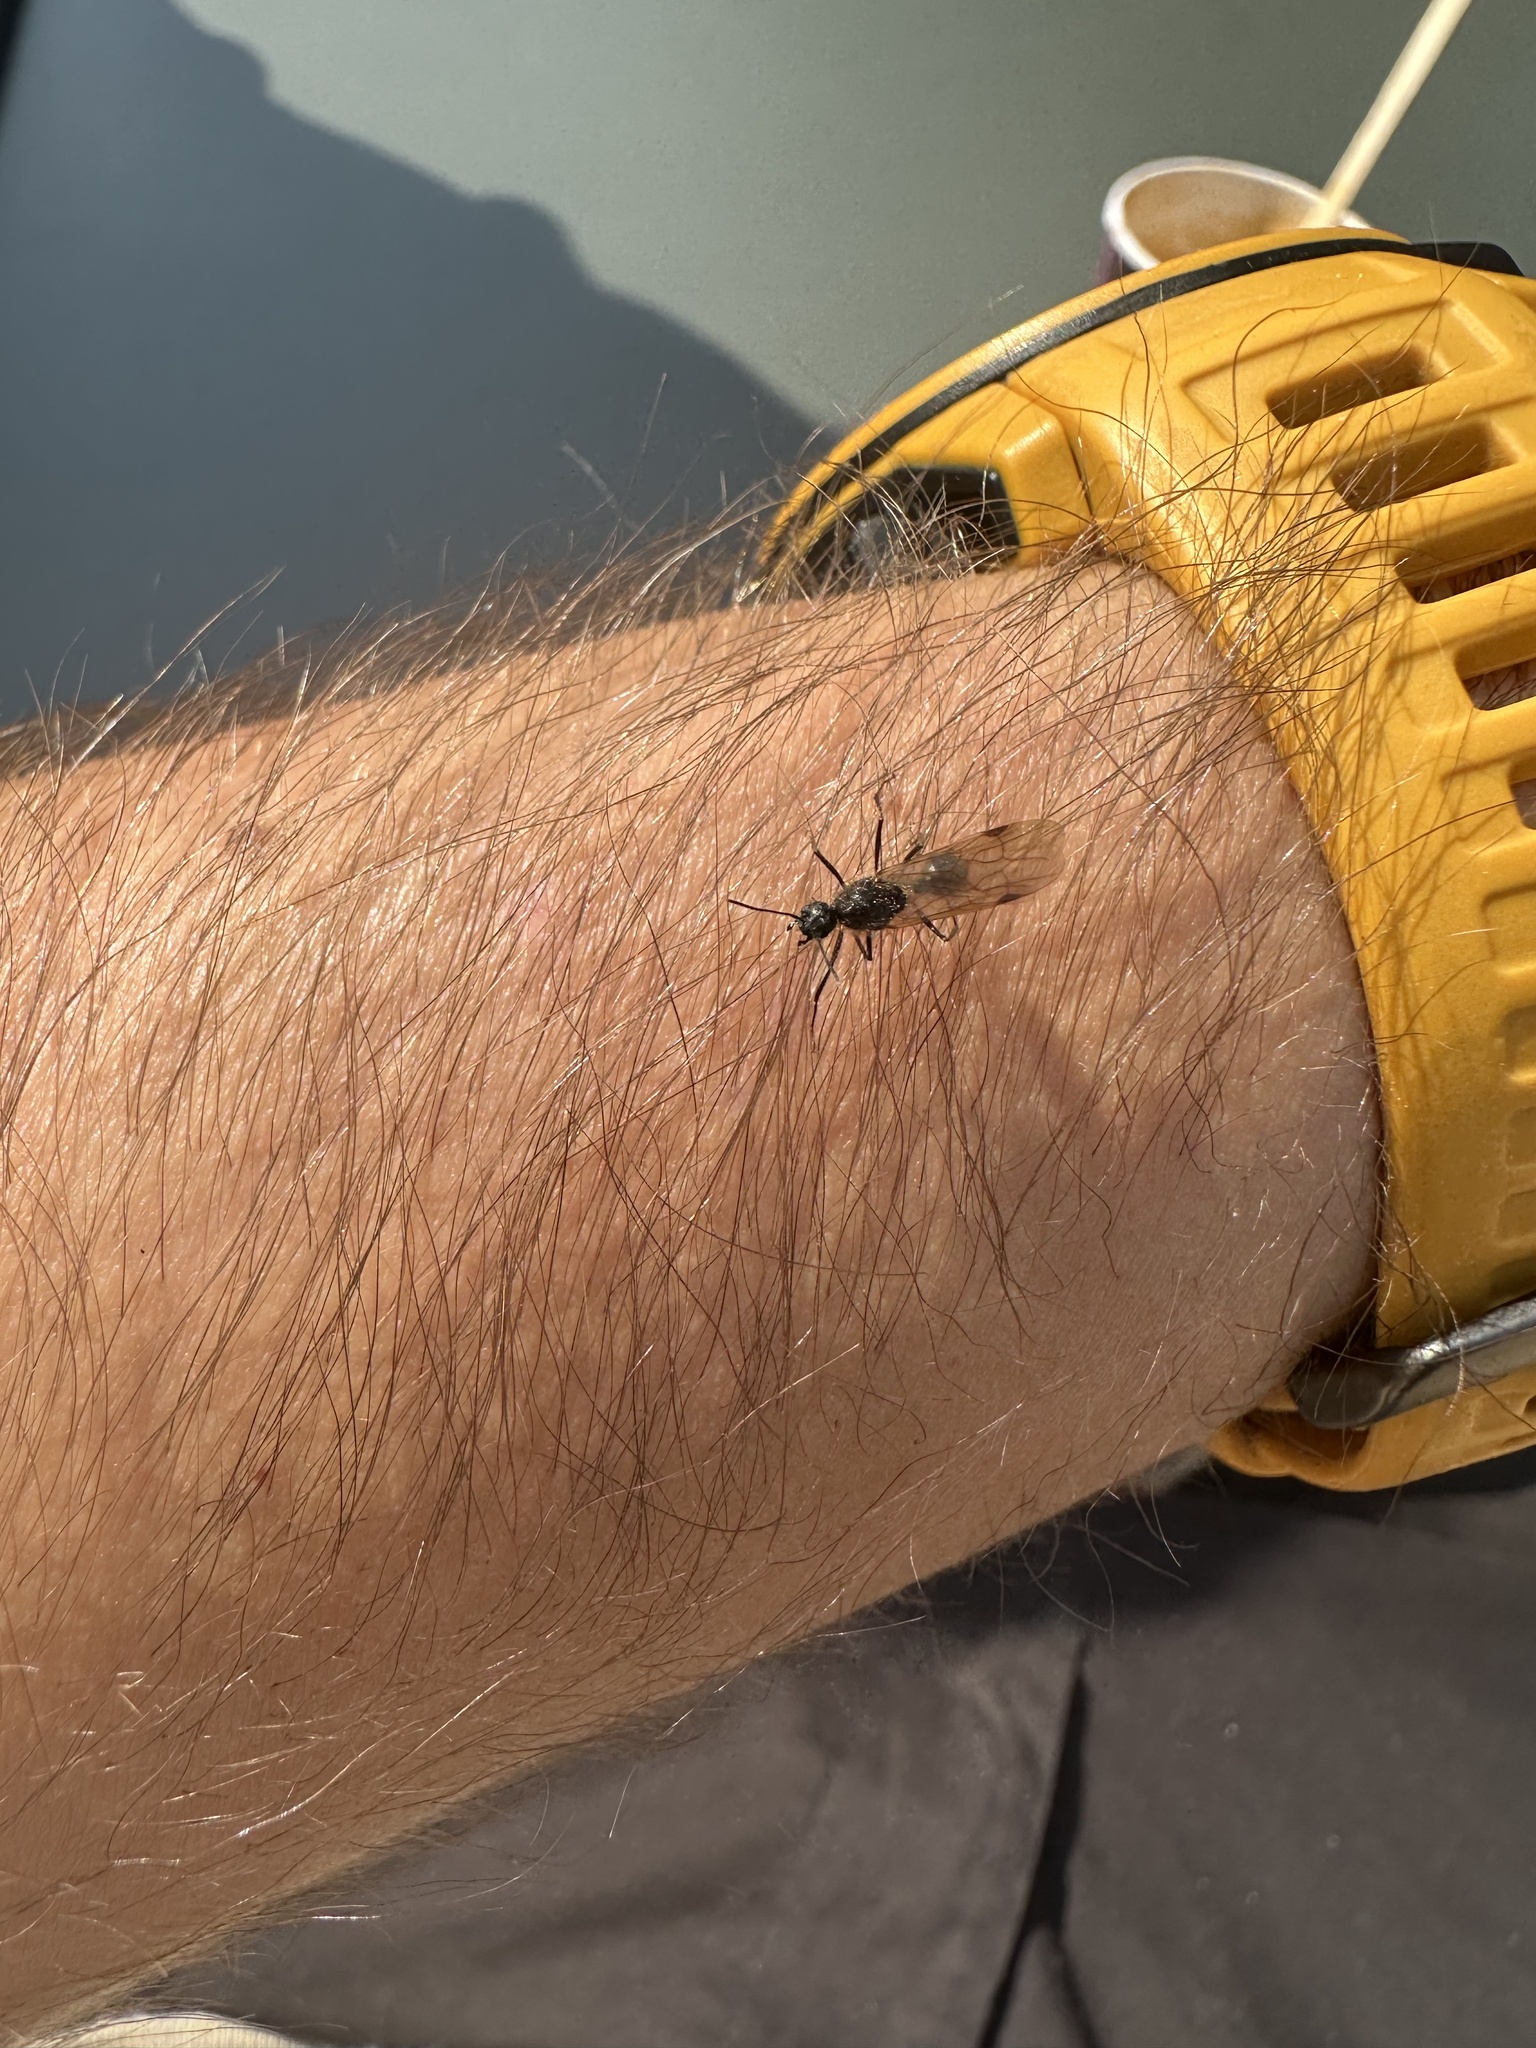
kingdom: Animalia
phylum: Arthropoda
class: Insecta
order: Hymenoptera
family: Formicidae
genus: Camponotus
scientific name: Camponotus vagus
